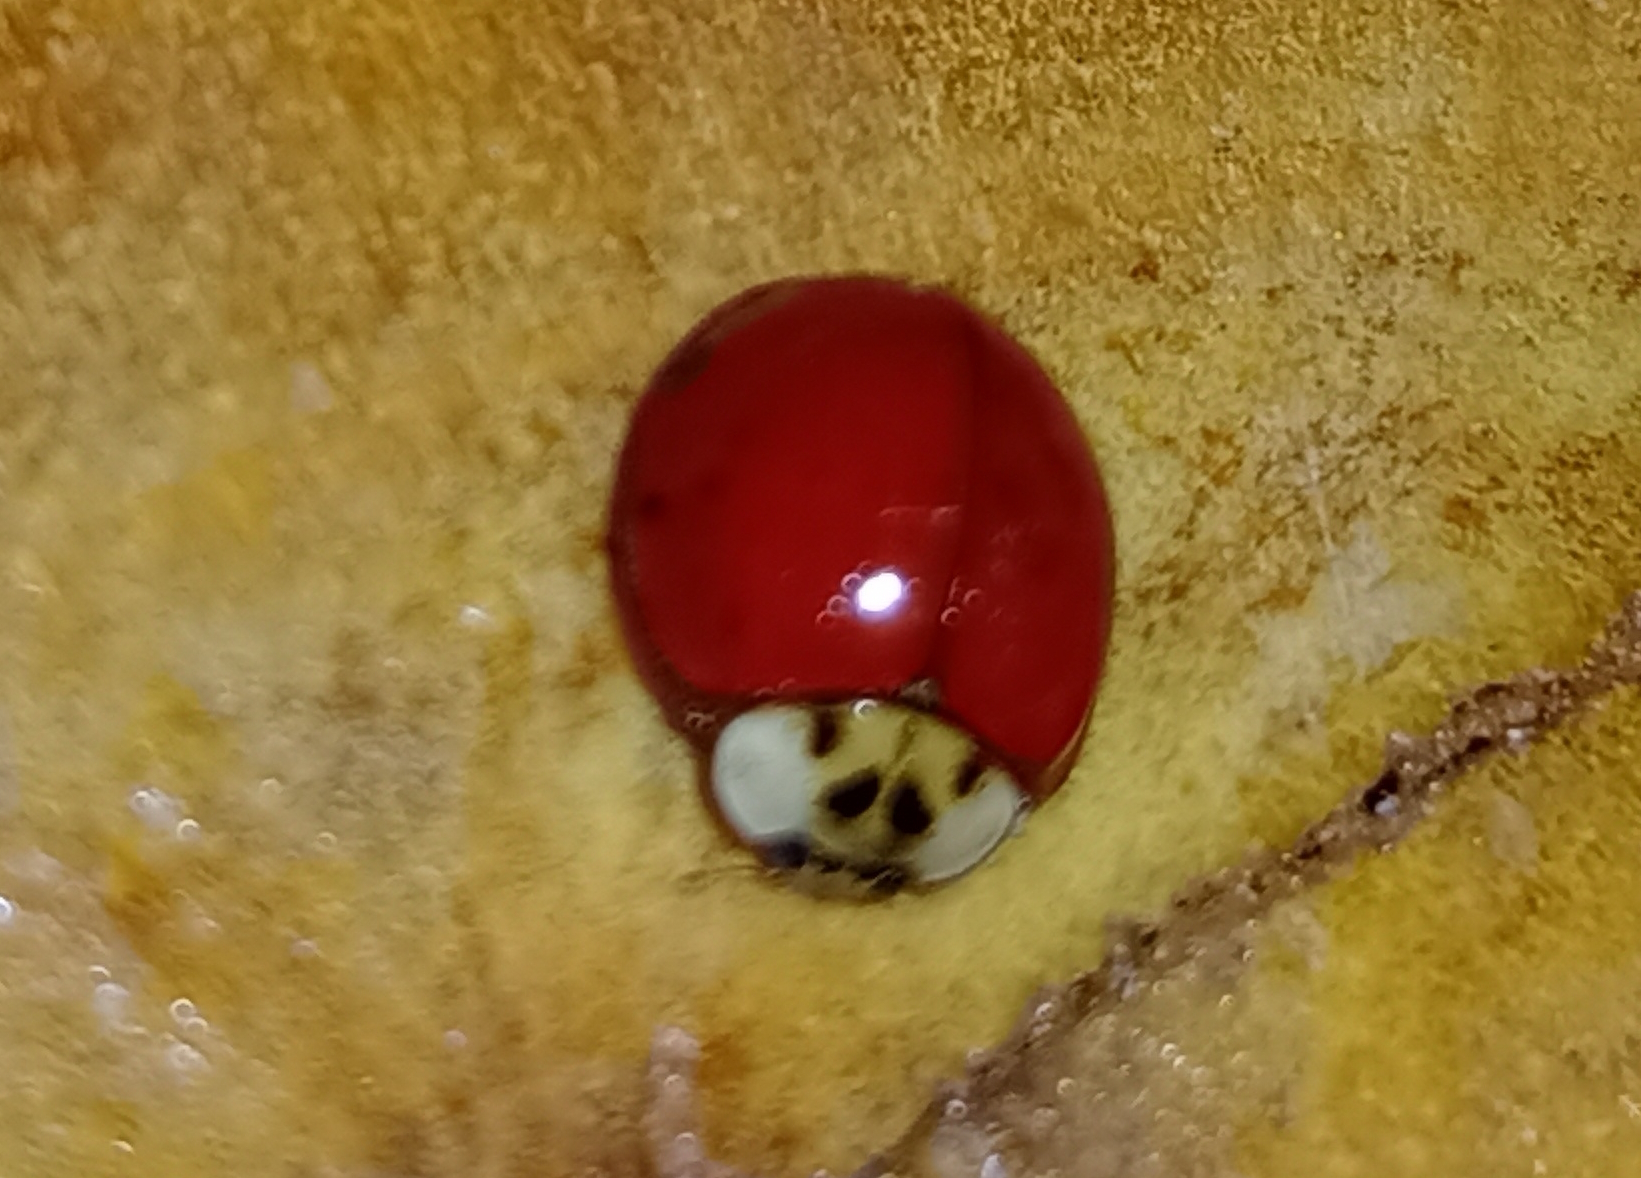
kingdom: Animalia
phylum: Arthropoda
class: Insecta
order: Coleoptera
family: Coccinellidae
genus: Harmonia
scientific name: Harmonia axyridis
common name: Harlequin ladybird
